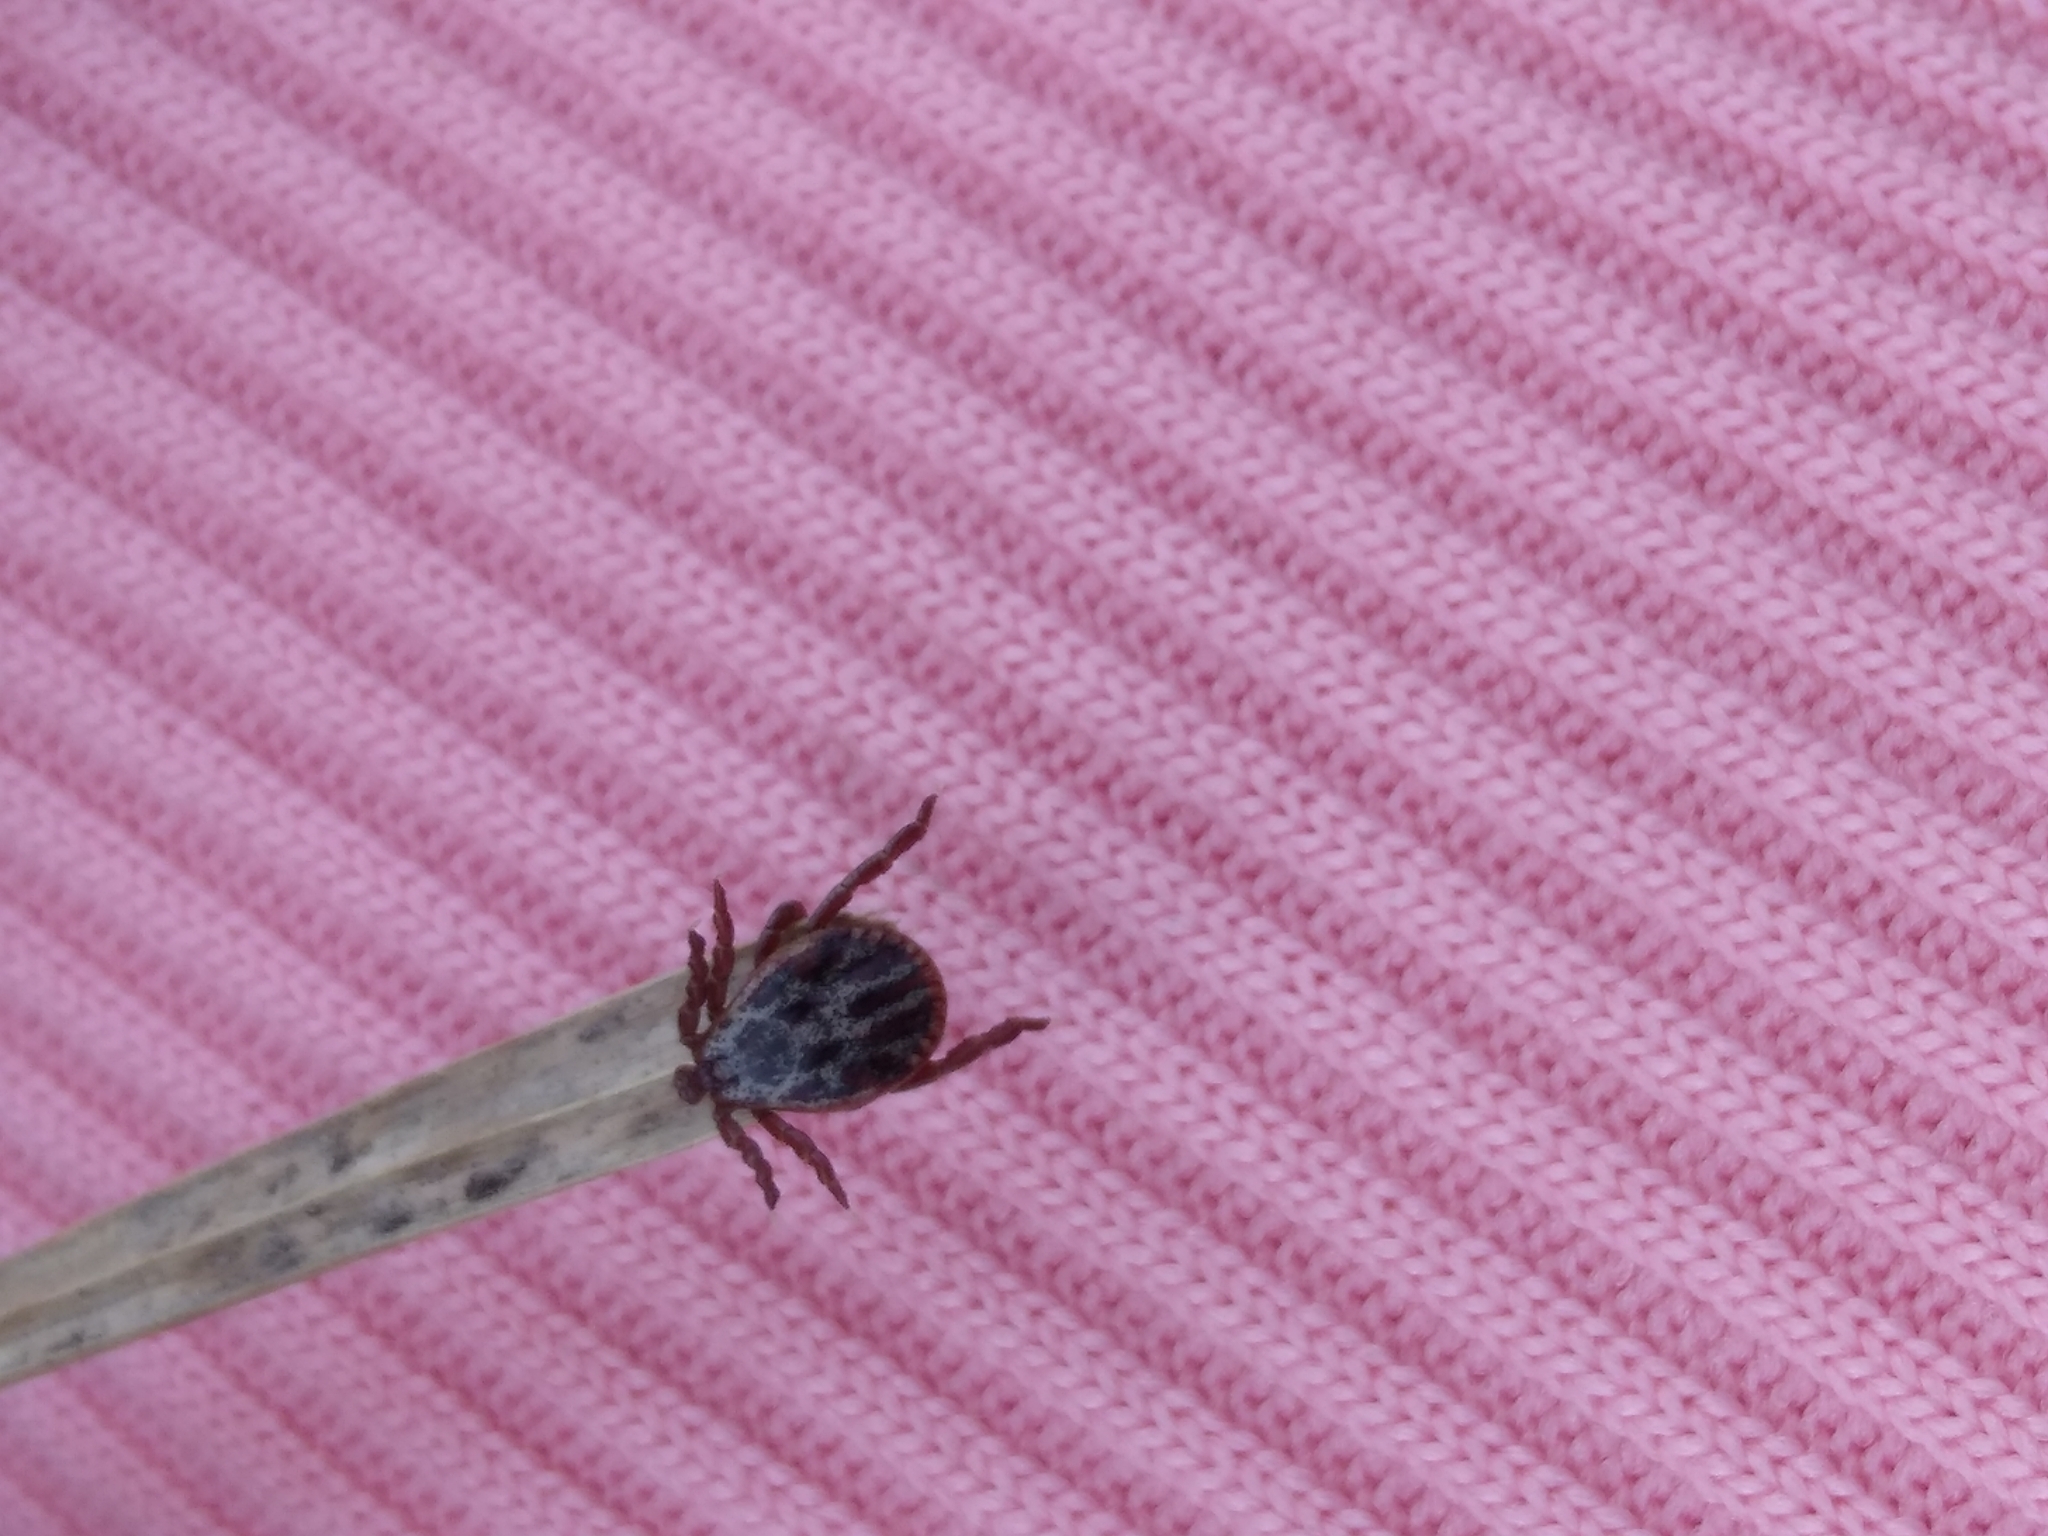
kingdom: Animalia
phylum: Arthropoda
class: Arachnida
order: Ixodida
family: Ixodidae
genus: Dermacentor
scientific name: Dermacentor reticulatus
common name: Ornate cow tick
